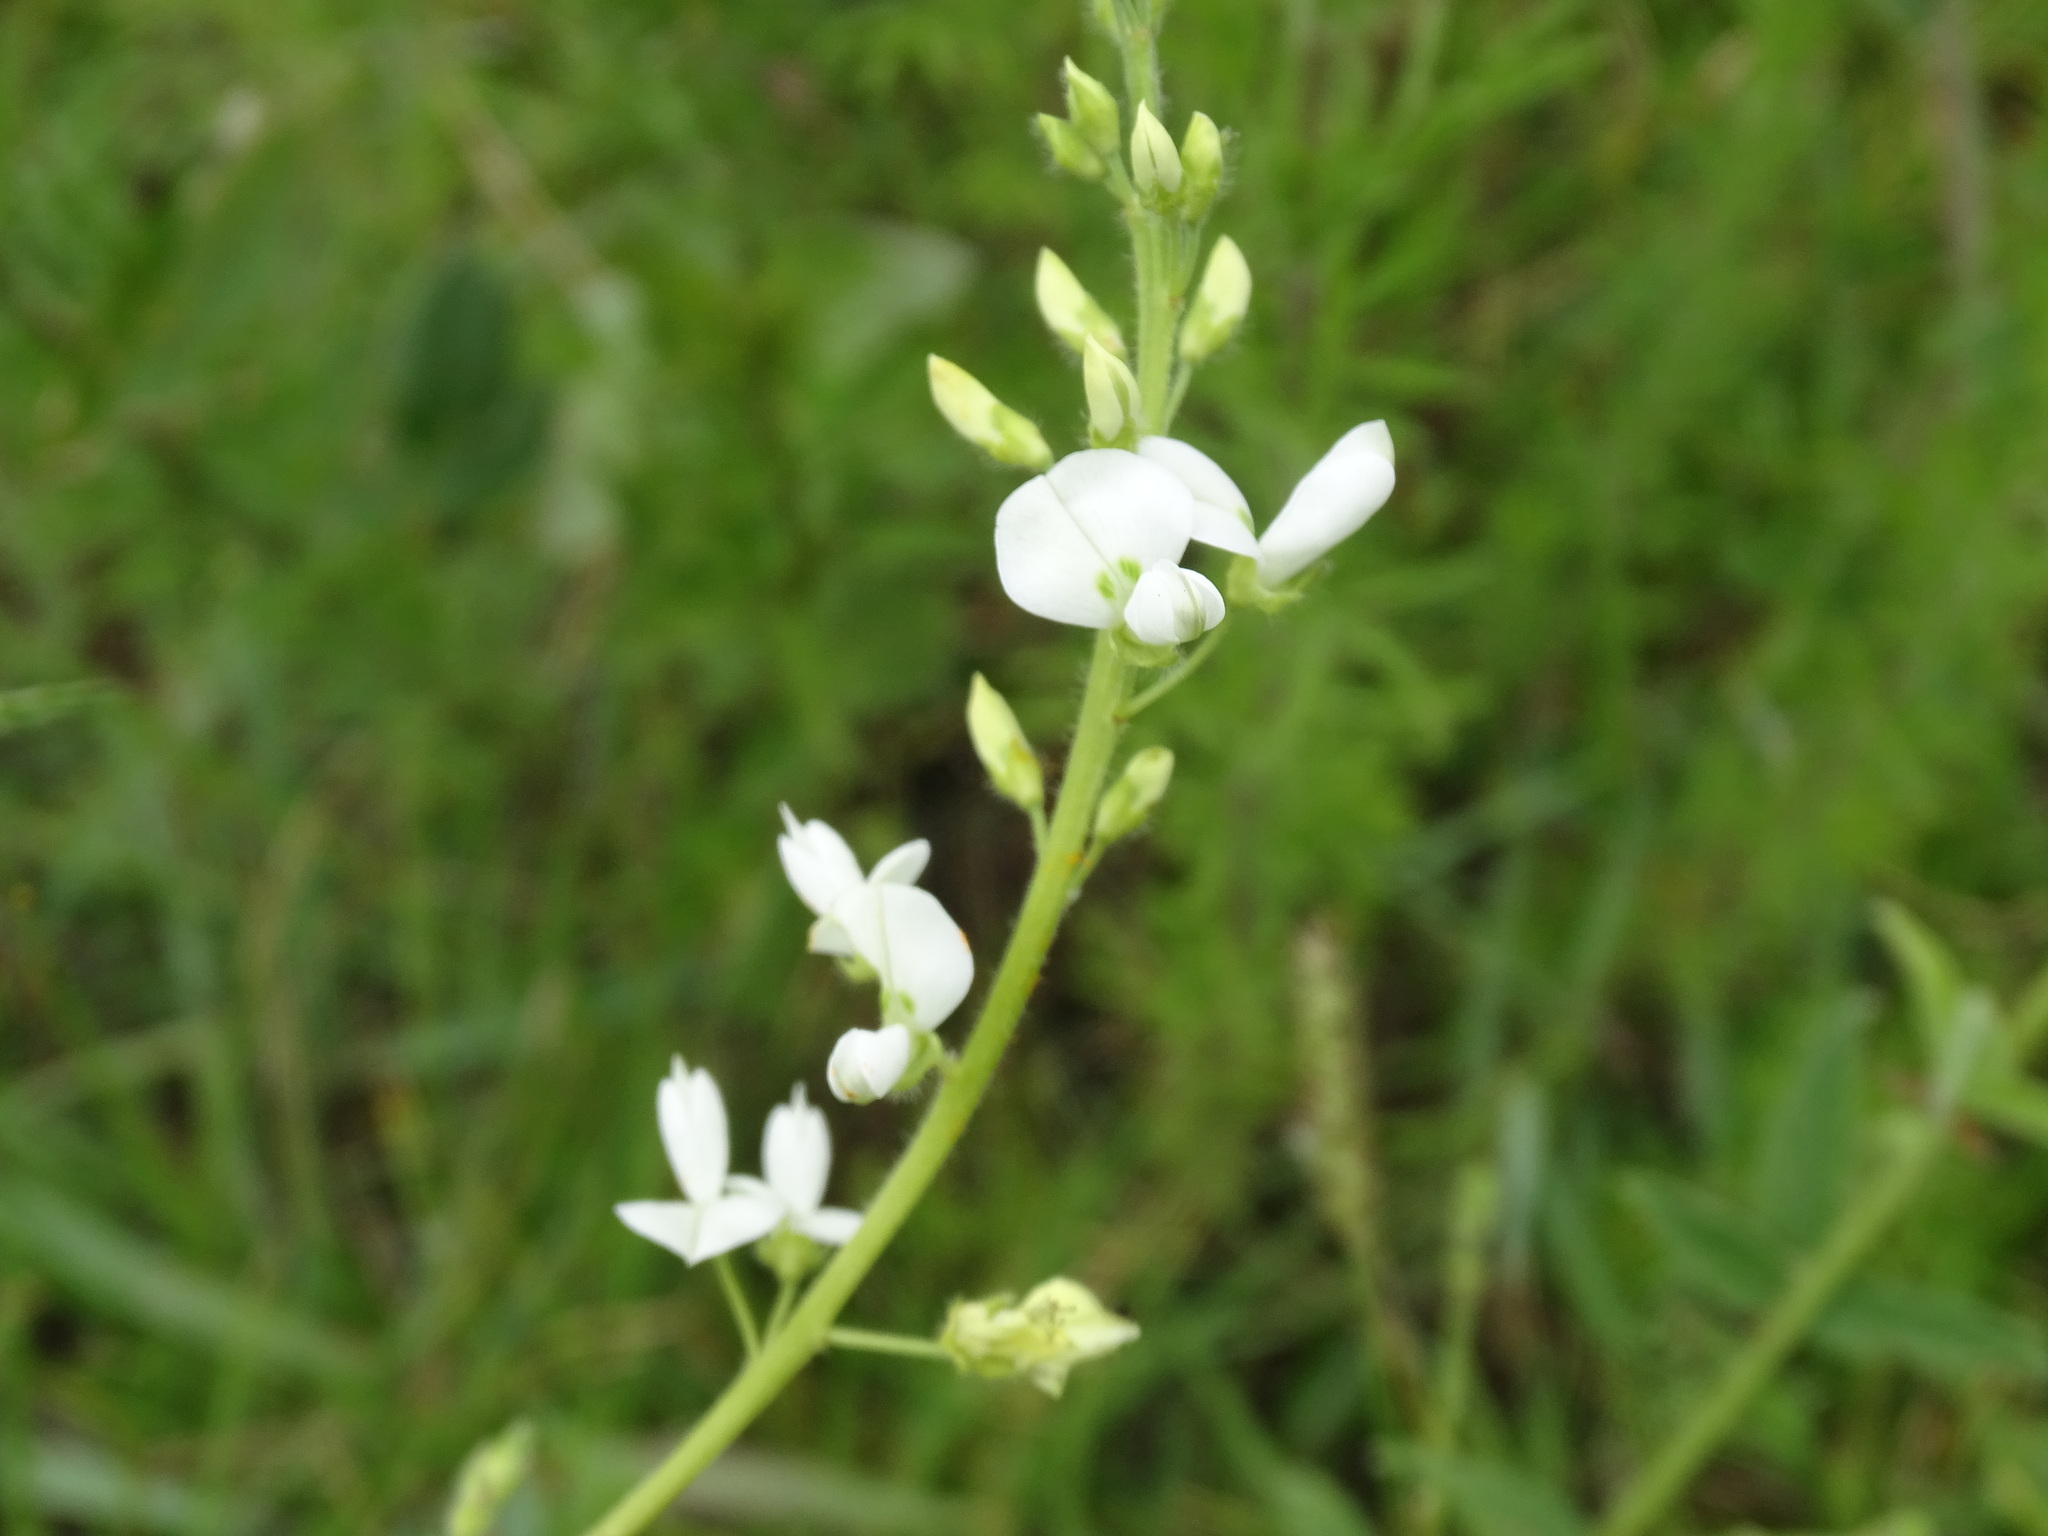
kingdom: Plantae
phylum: Tracheophyta
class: Magnoliopsida
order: Fabales
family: Fabaceae
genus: Desmodium
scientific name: Desmodium subsessile
